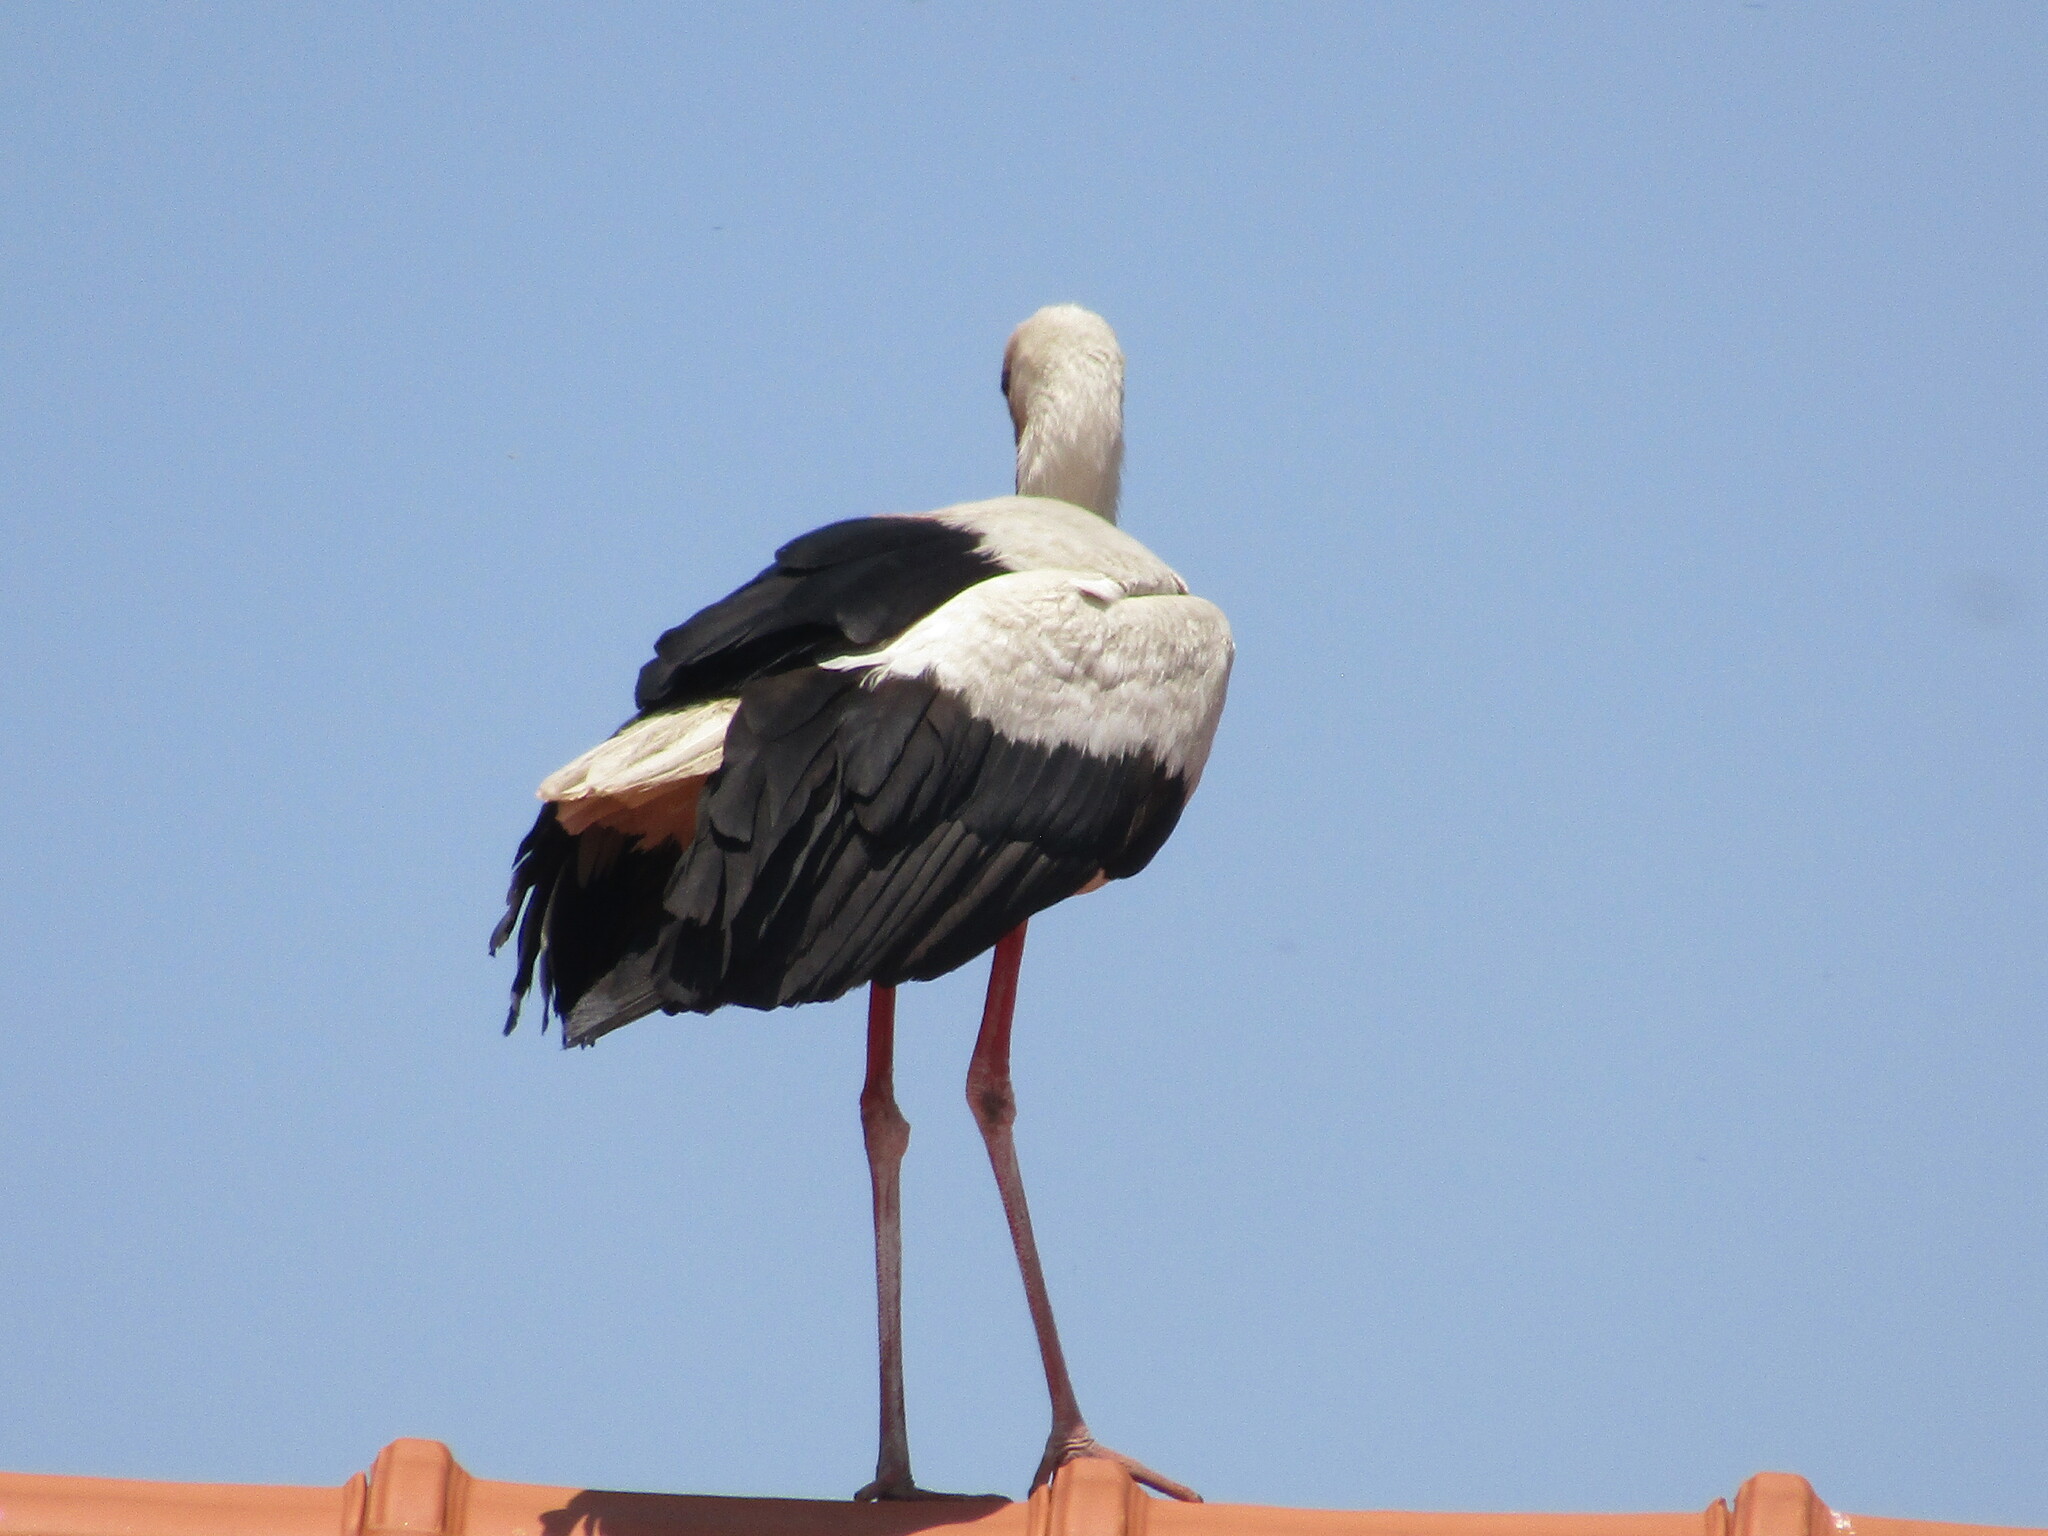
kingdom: Animalia
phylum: Chordata
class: Aves
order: Ciconiiformes
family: Ciconiidae
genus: Ciconia
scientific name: Ciconia ciconia
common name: White stork
